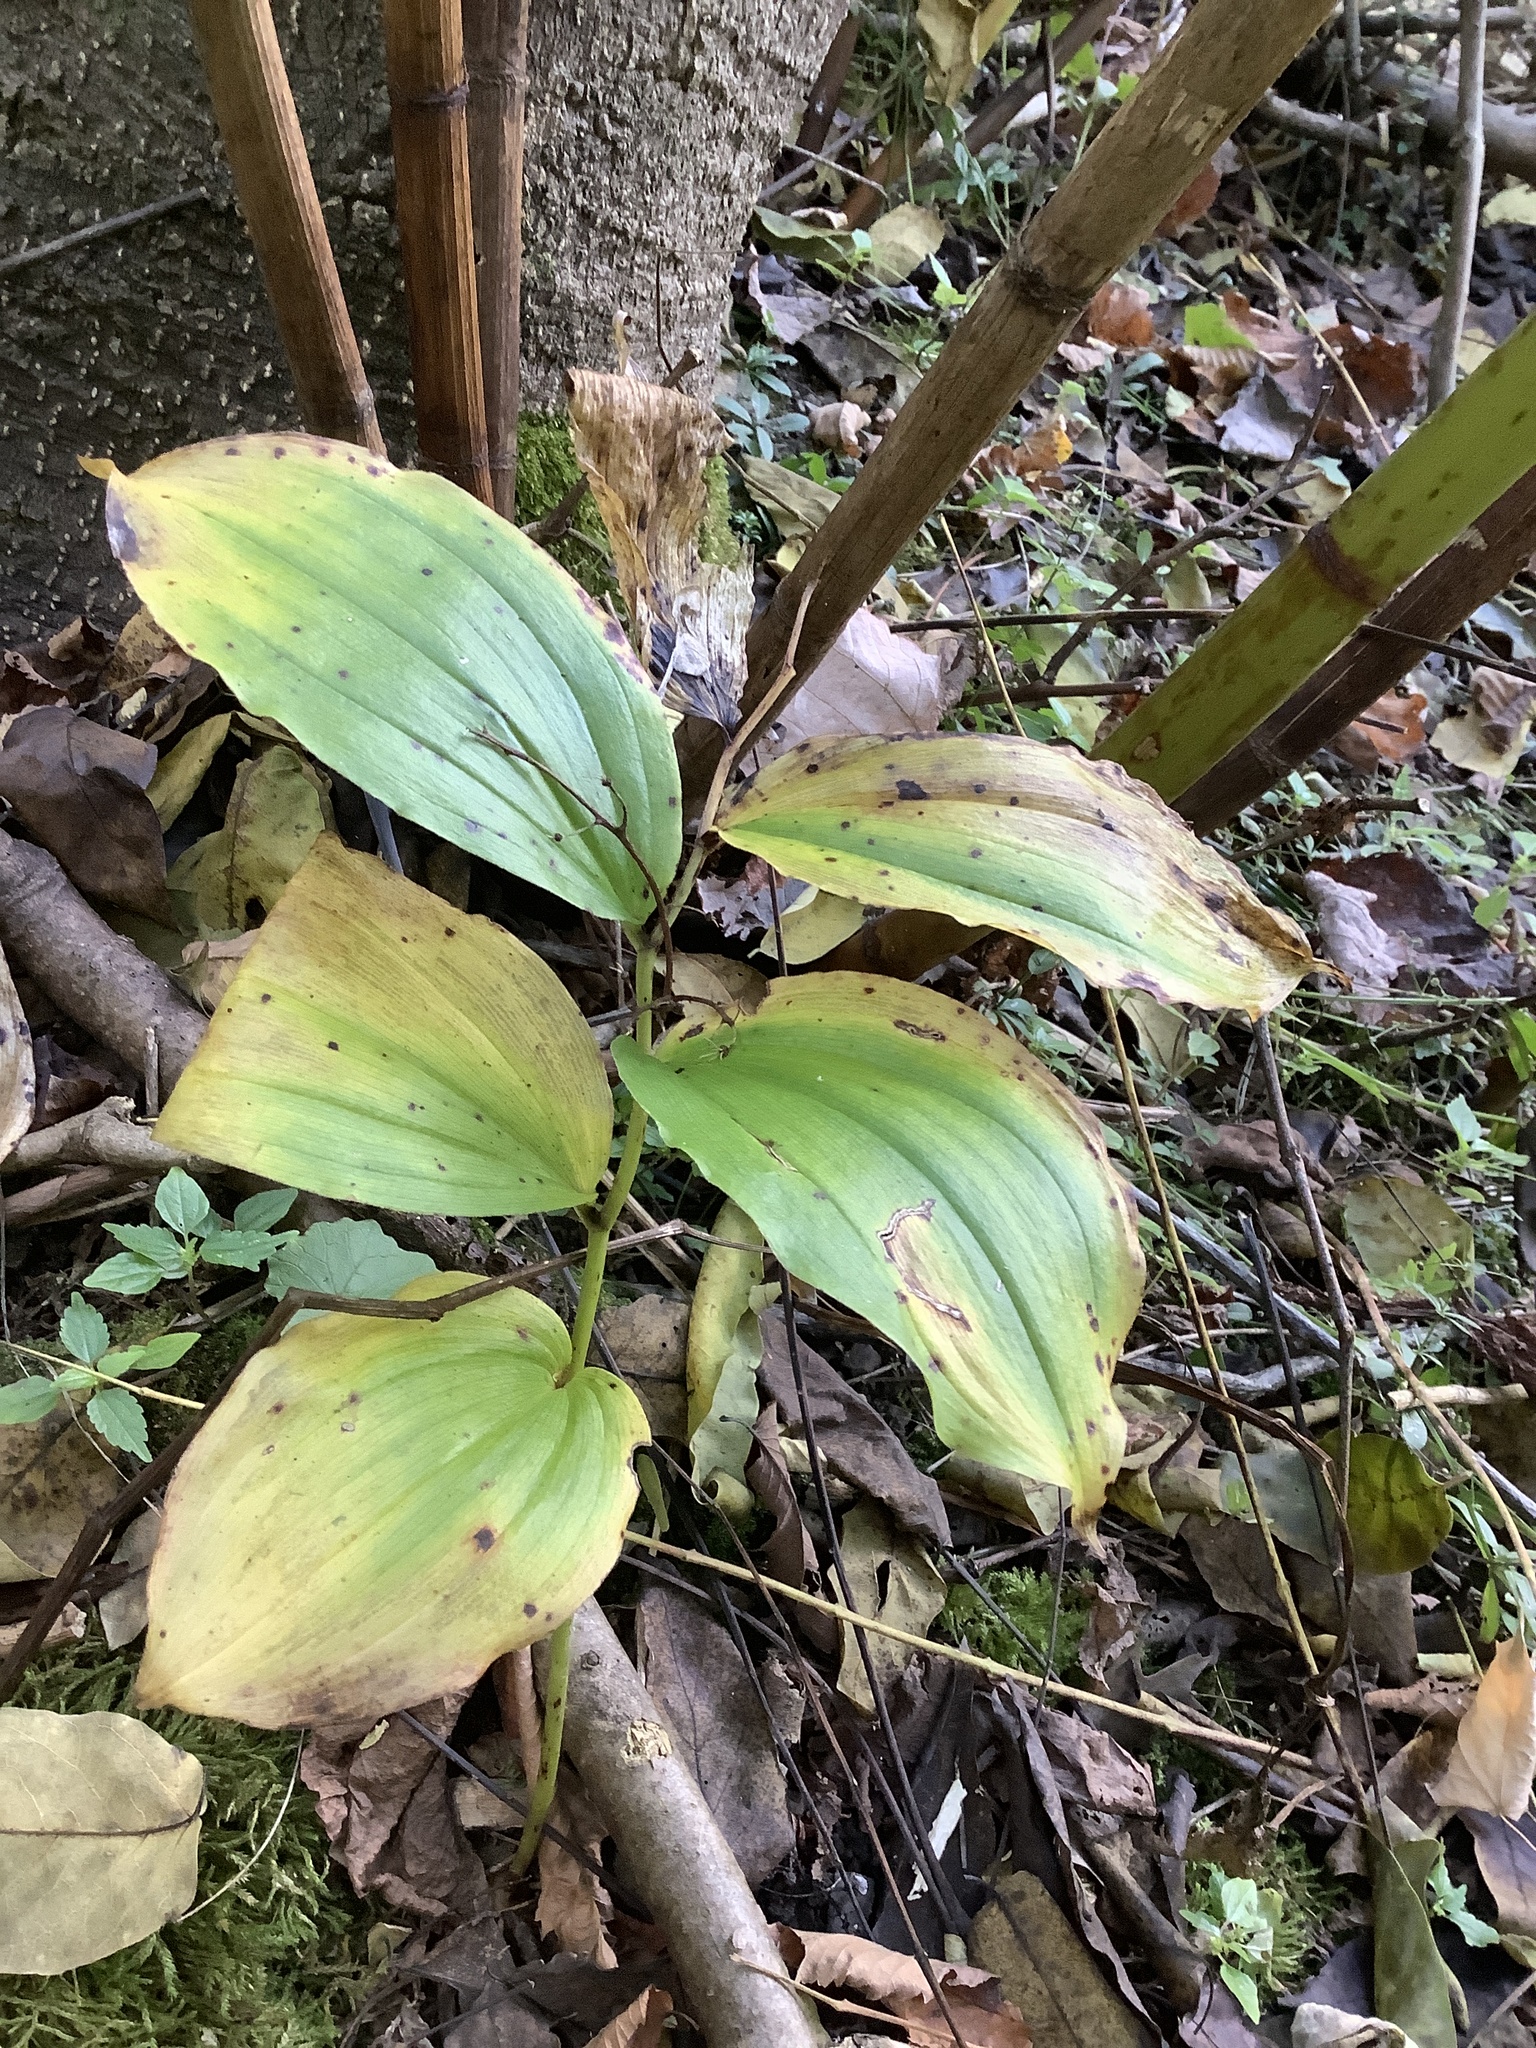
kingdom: Plantae
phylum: Tracheophyta
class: Liliopsida
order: Asparagales
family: Asparagaceae
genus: Maianthemum
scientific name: Maianthemum racemosum
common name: False spikenard
